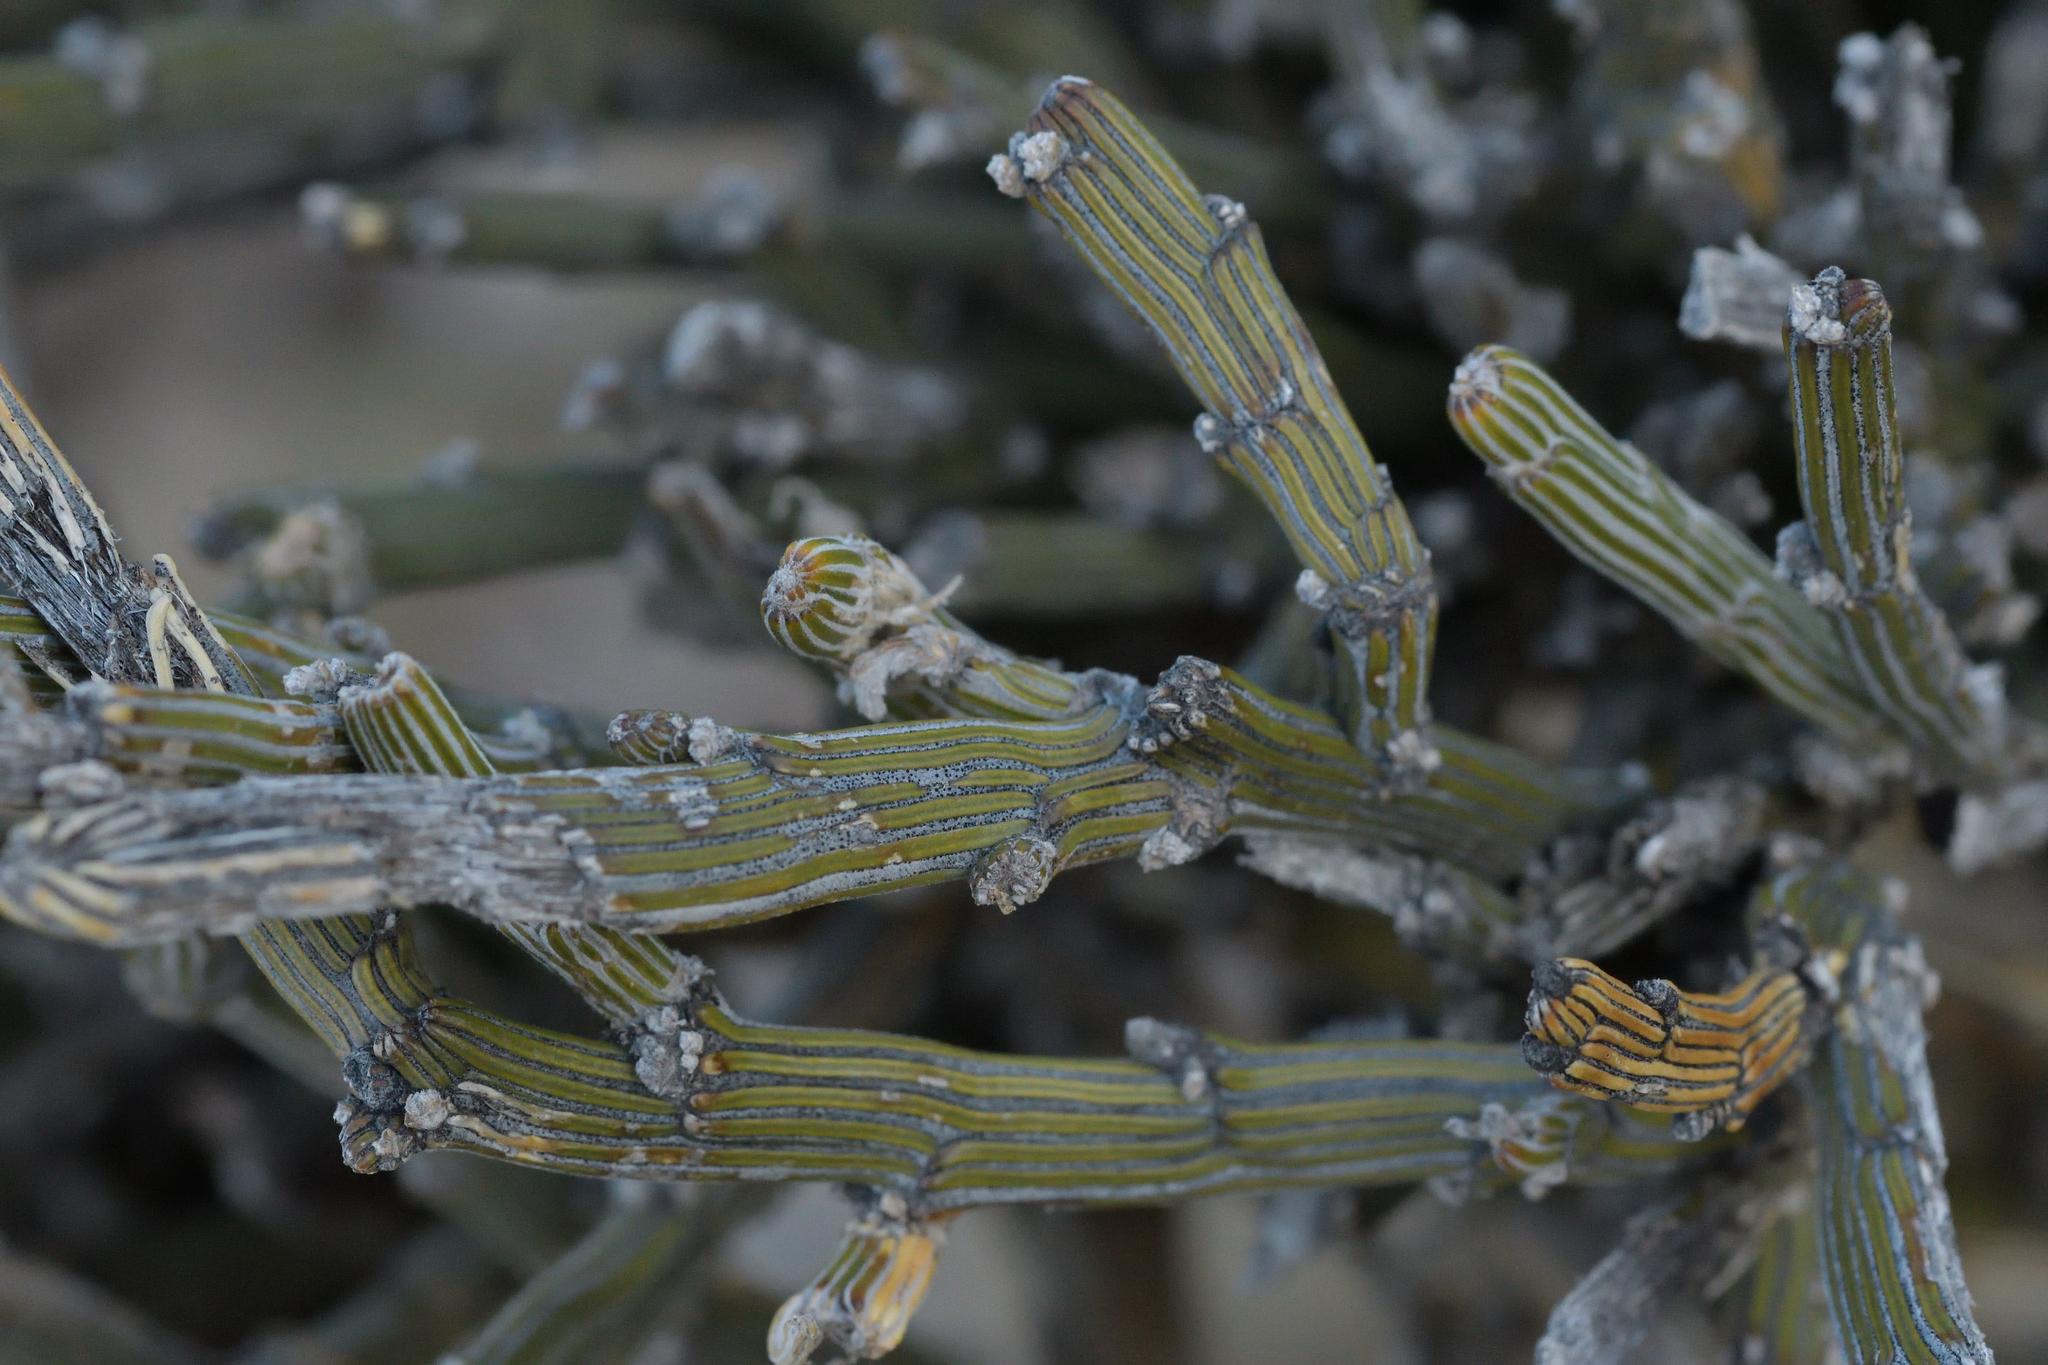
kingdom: Plantae
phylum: Tracheophyta
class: Magnoliopsida
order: Fabales
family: Fabaceae
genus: Carmichaelia
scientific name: Carmichaelia crassicaulis
